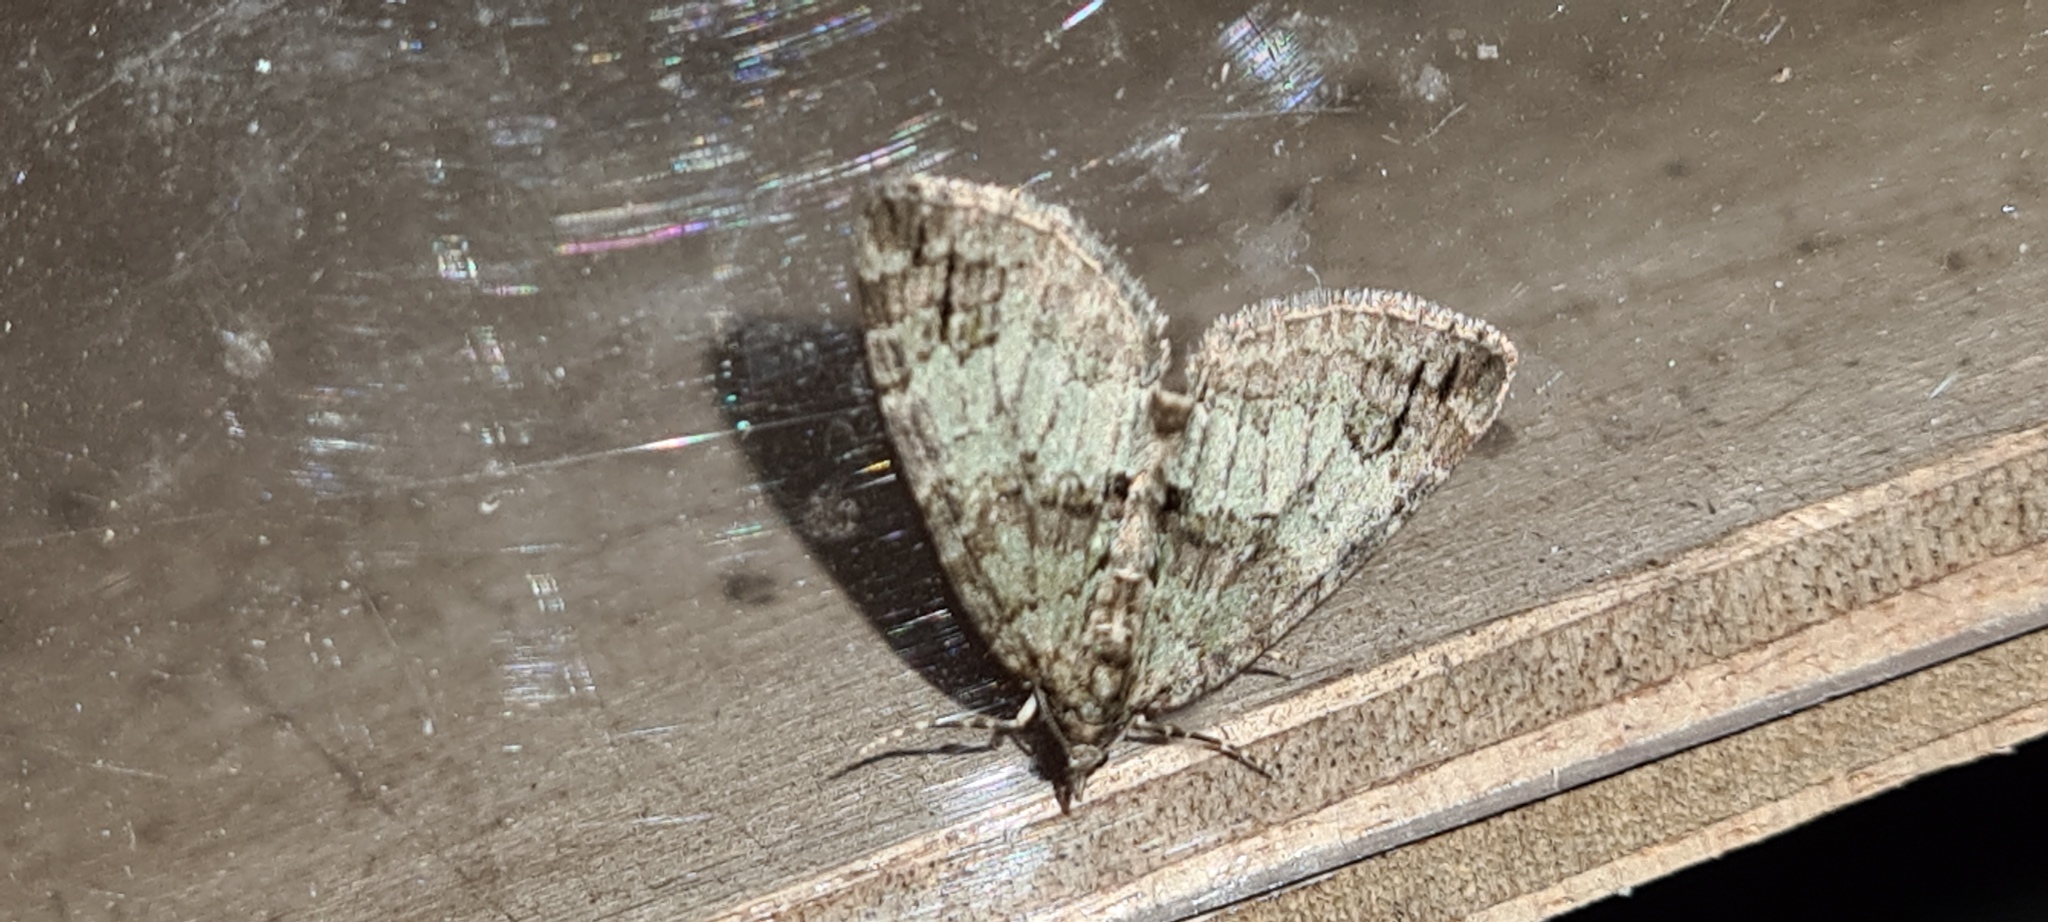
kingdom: Animalia
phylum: Arthropoda
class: Insecta
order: Lepidoptera
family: Geometridae
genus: Hydriomena
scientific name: Hydriomena impluviata
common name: May highflyer
